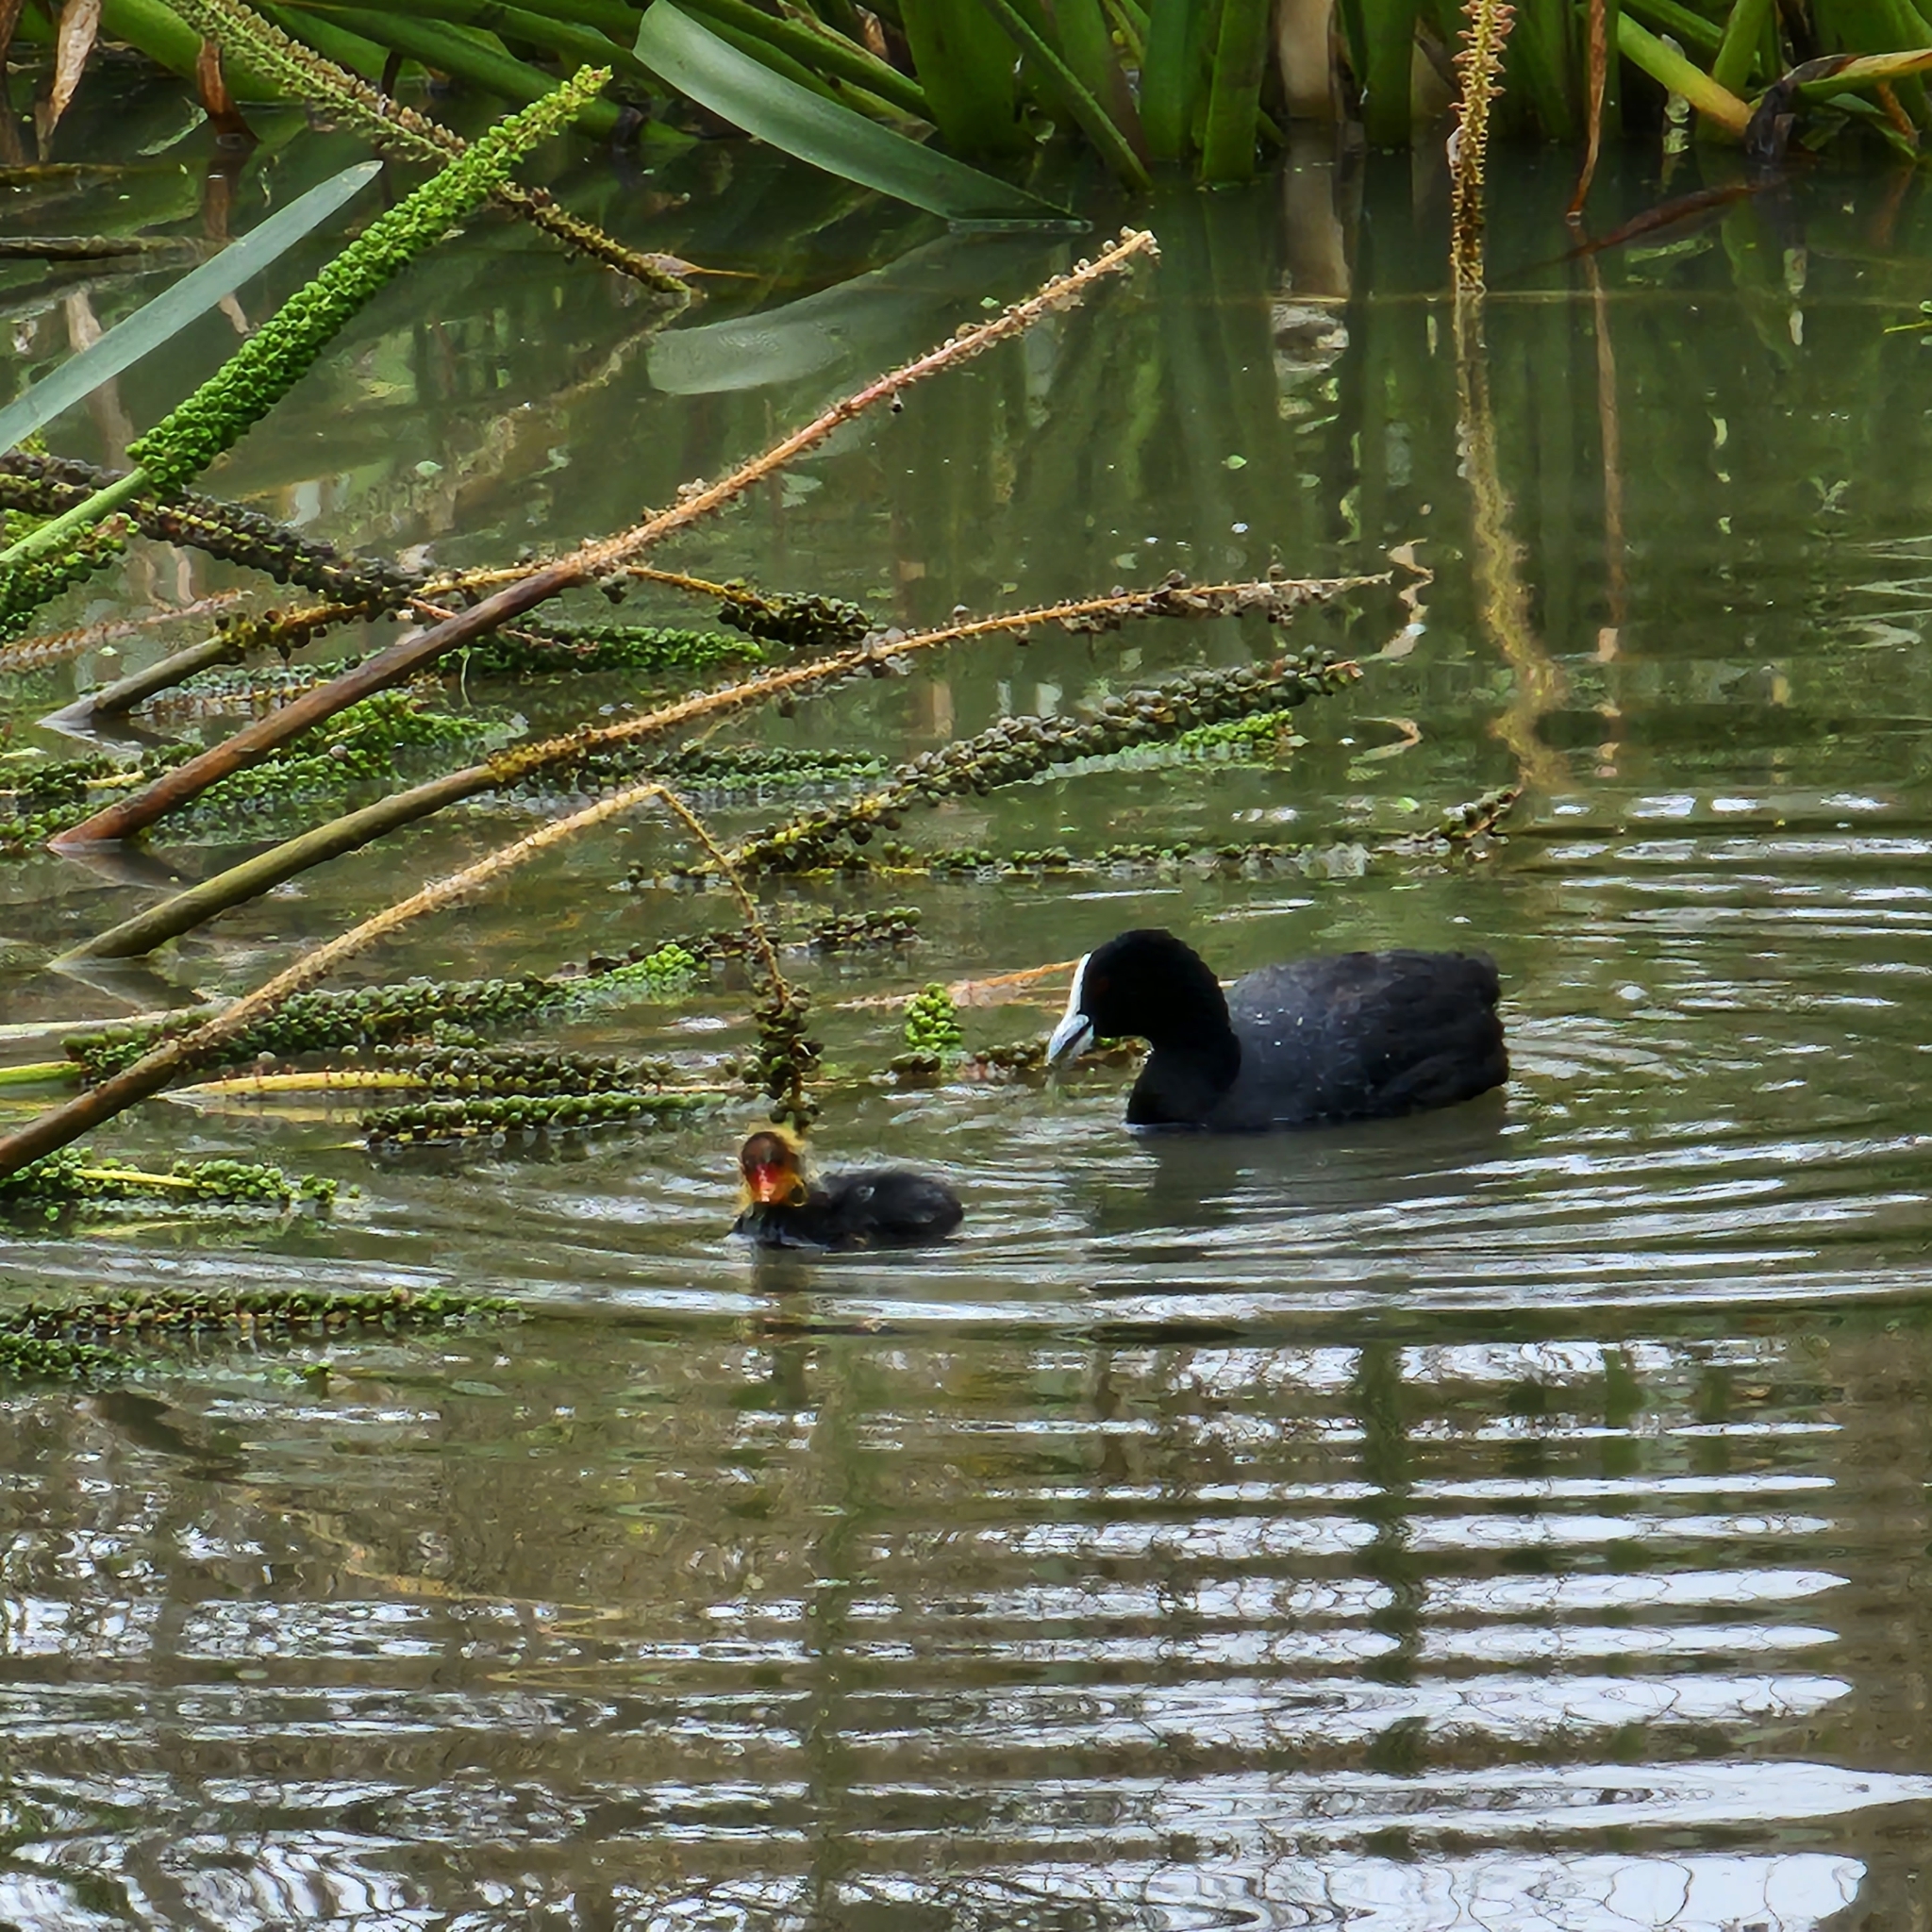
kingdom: Animalia
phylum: Chordata
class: Aves
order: Gruiformes
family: Rallidae
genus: Fulica
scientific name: Fulica atra
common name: Eurasian coot
